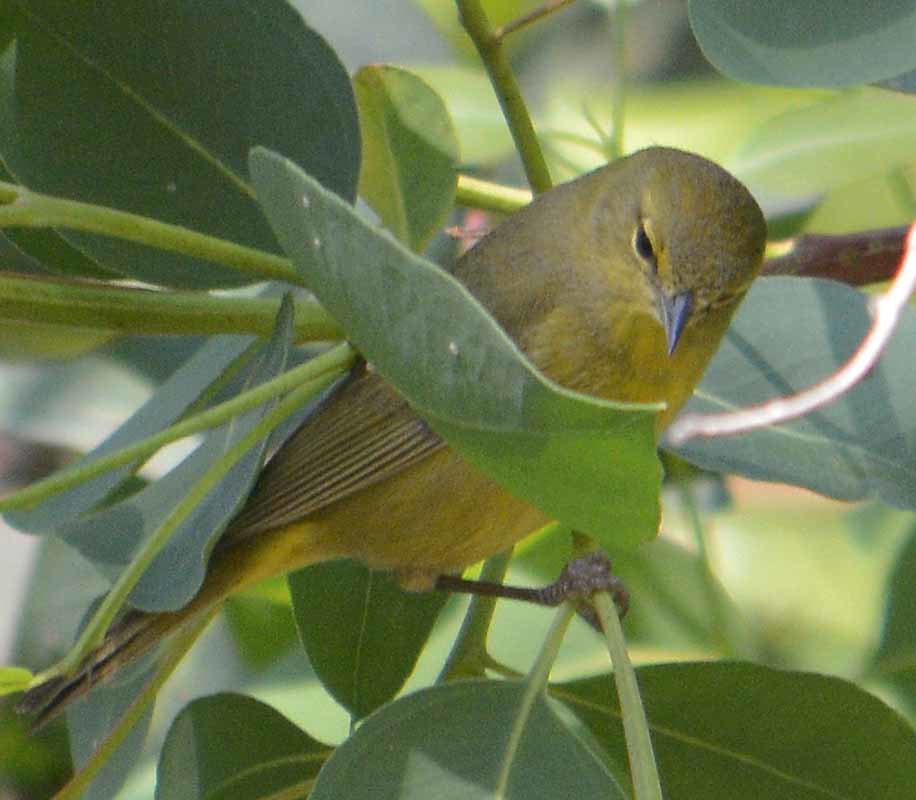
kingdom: Animalia
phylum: Chordata
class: Aves
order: Passeriformes
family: Parulidae
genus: Leiothlypis
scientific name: Leiothlypis celata
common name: Orange-crowned warbler
